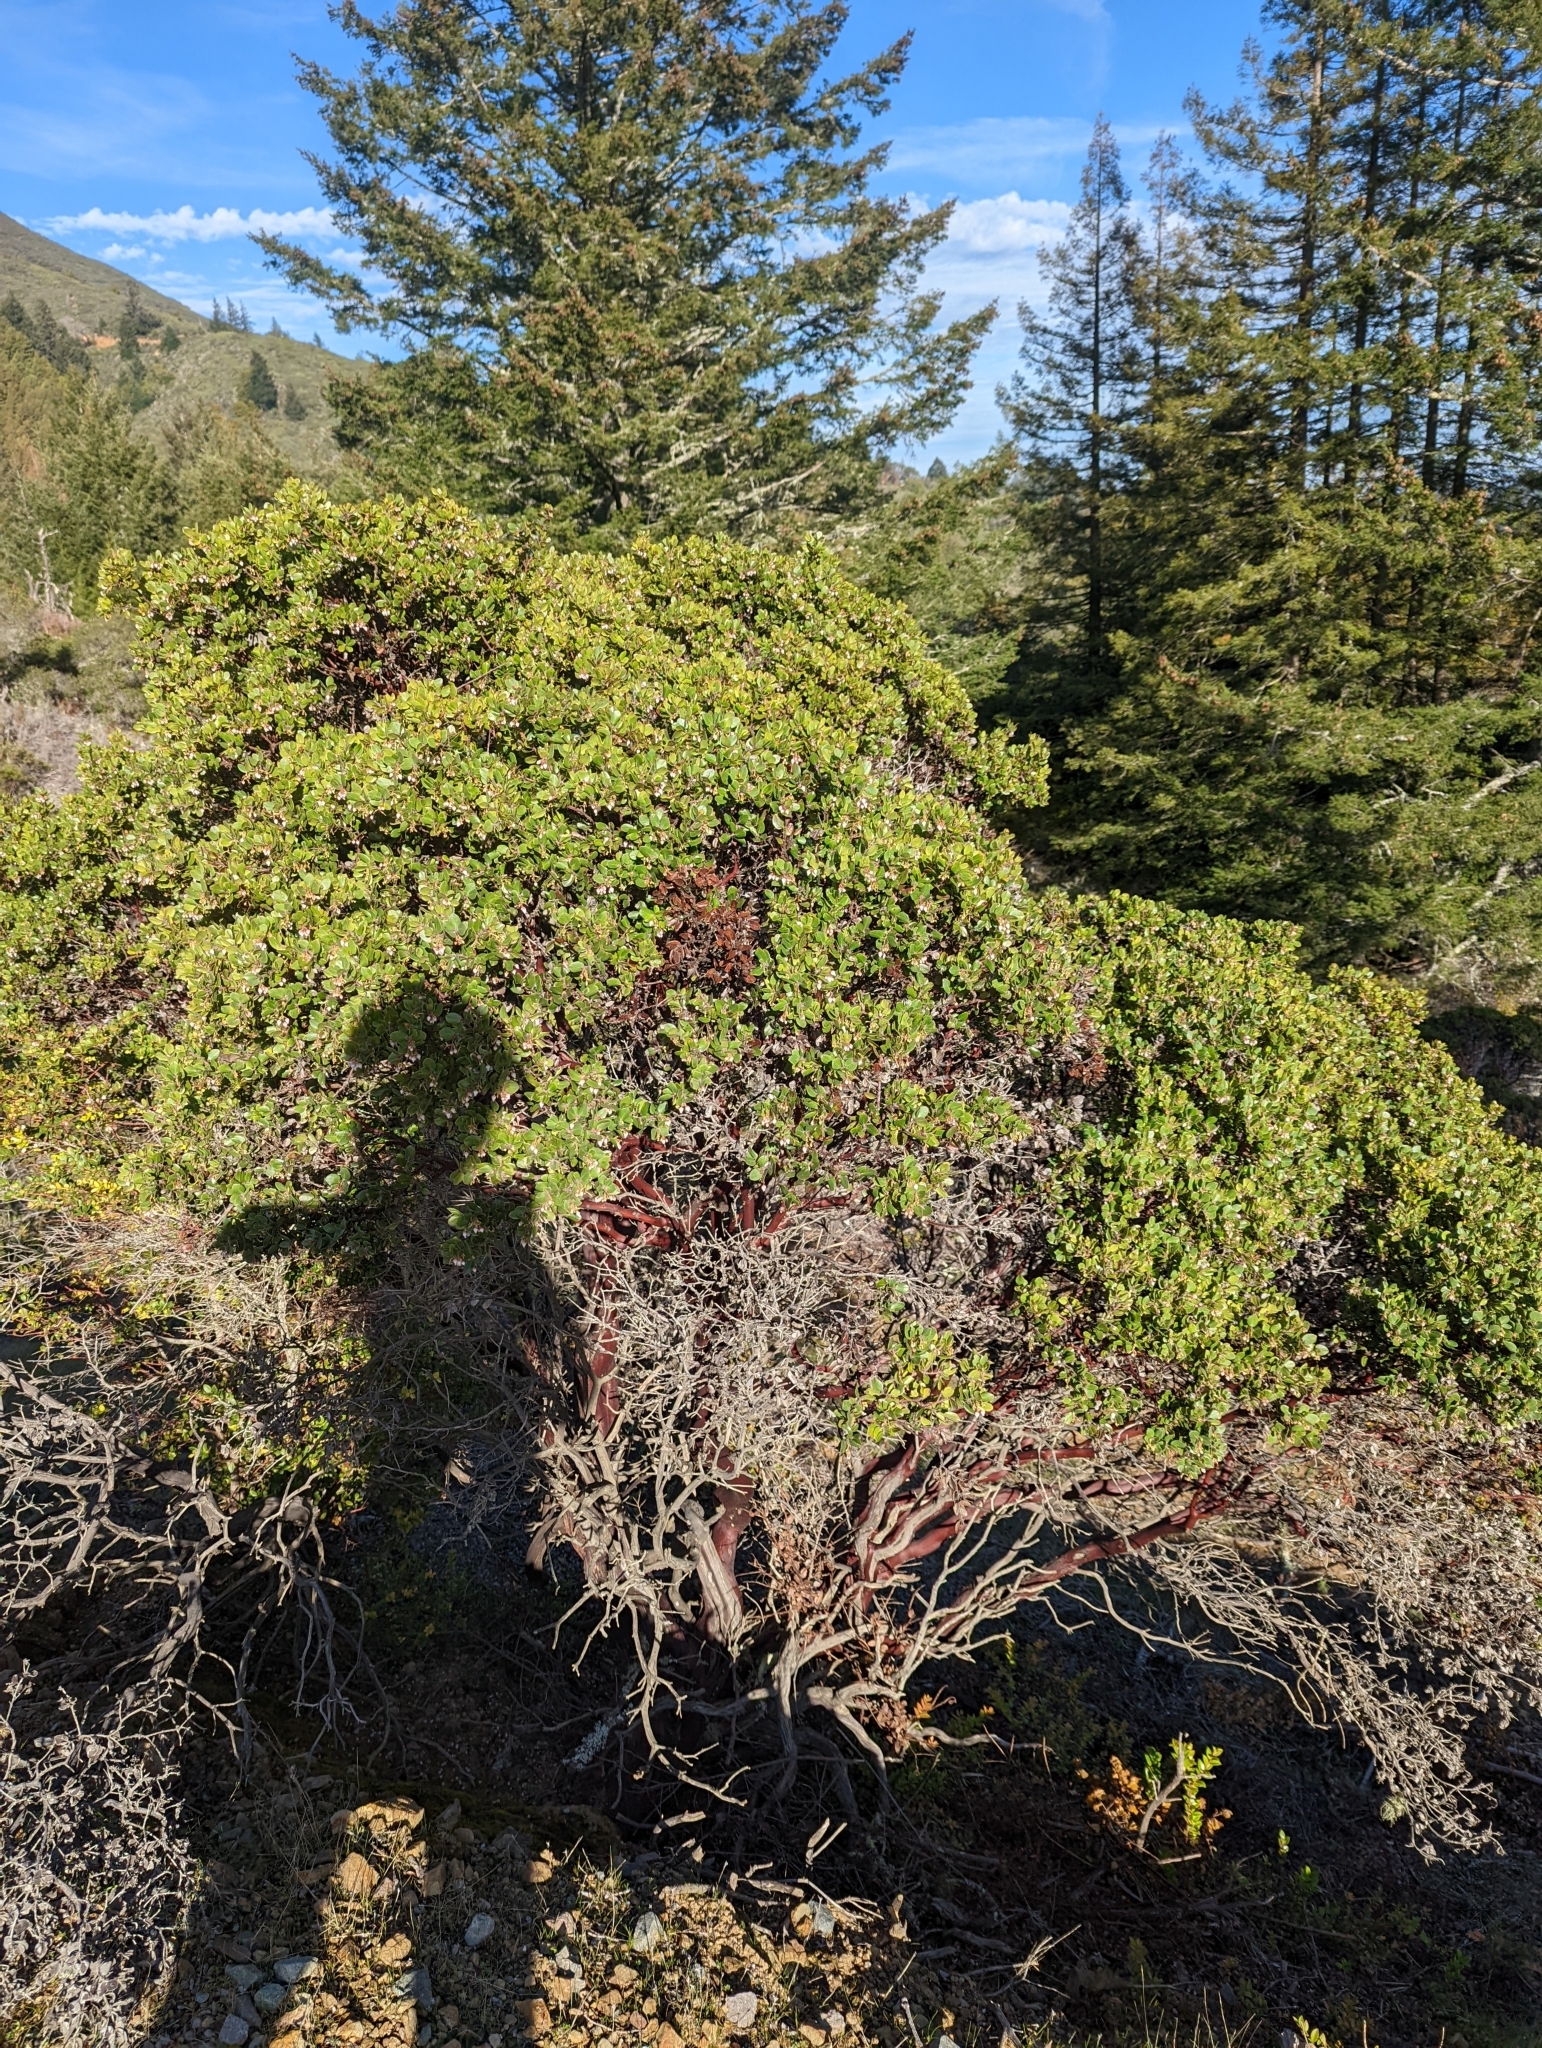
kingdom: Plantae
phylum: Tracheophyta
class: Magnoliopsida
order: Ericales
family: Ericaceae
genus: Arctostaphylos
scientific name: Arctostaphylos nummularia
